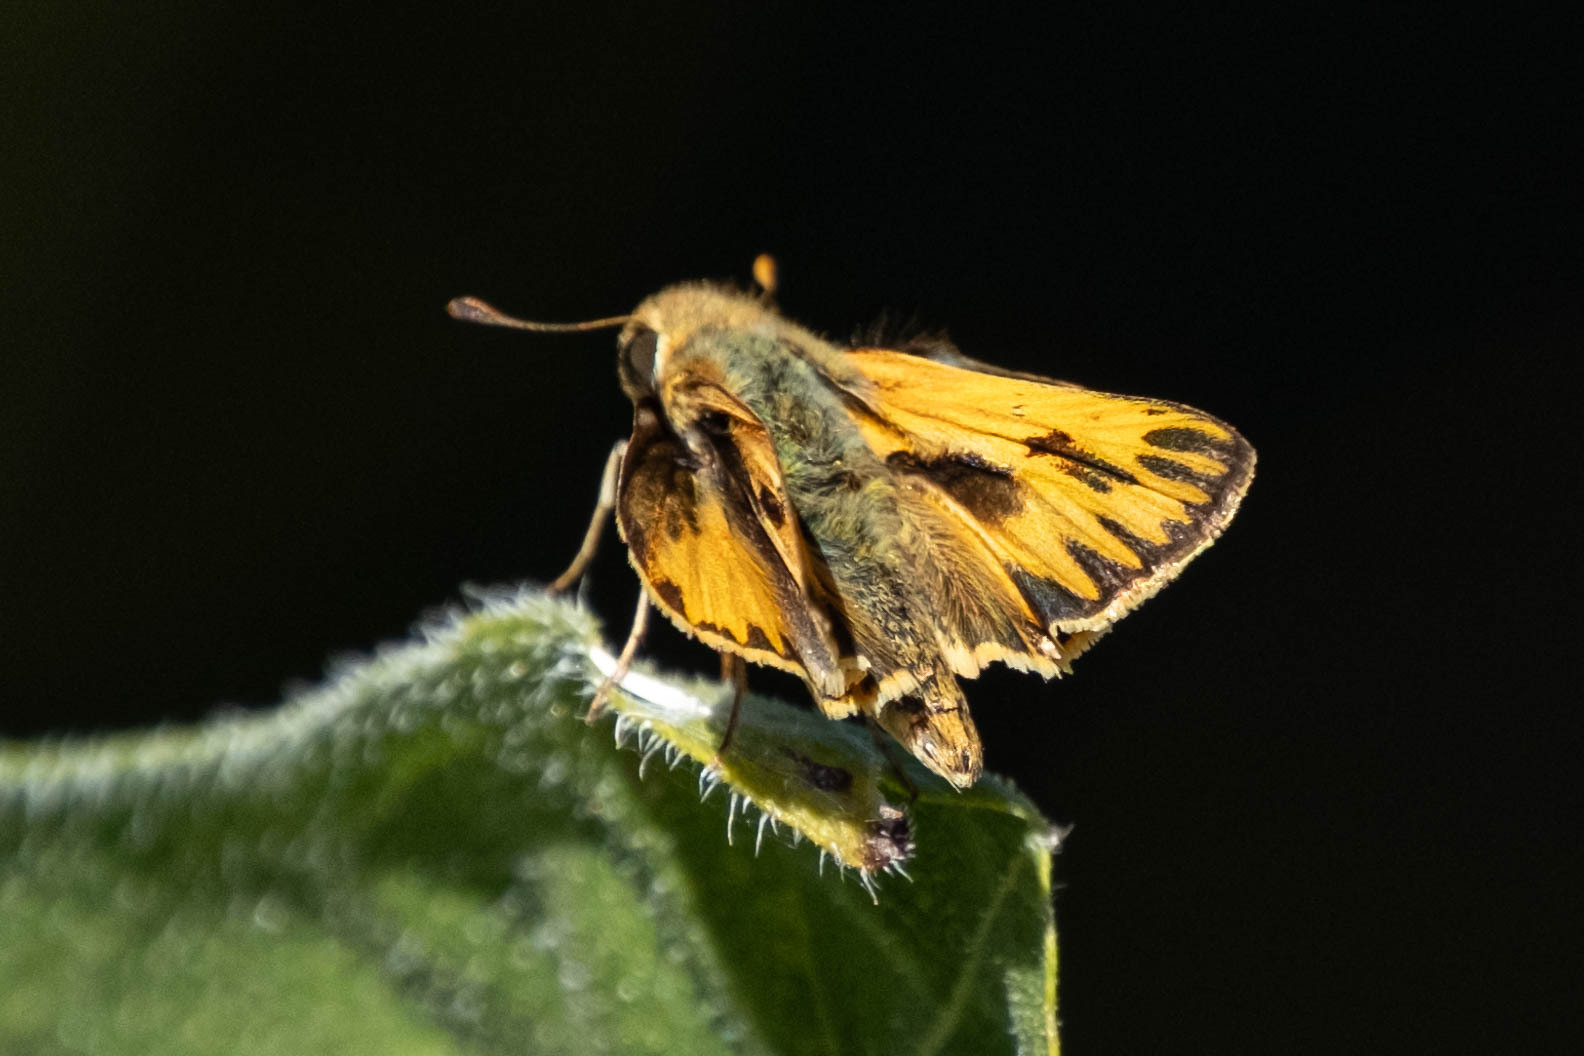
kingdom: Animalia
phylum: Arthropoda
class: Insecta
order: Lepidoptera
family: Hesperiidae
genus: Hylephila
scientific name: Hylephila phyleus
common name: Fiery skipper
